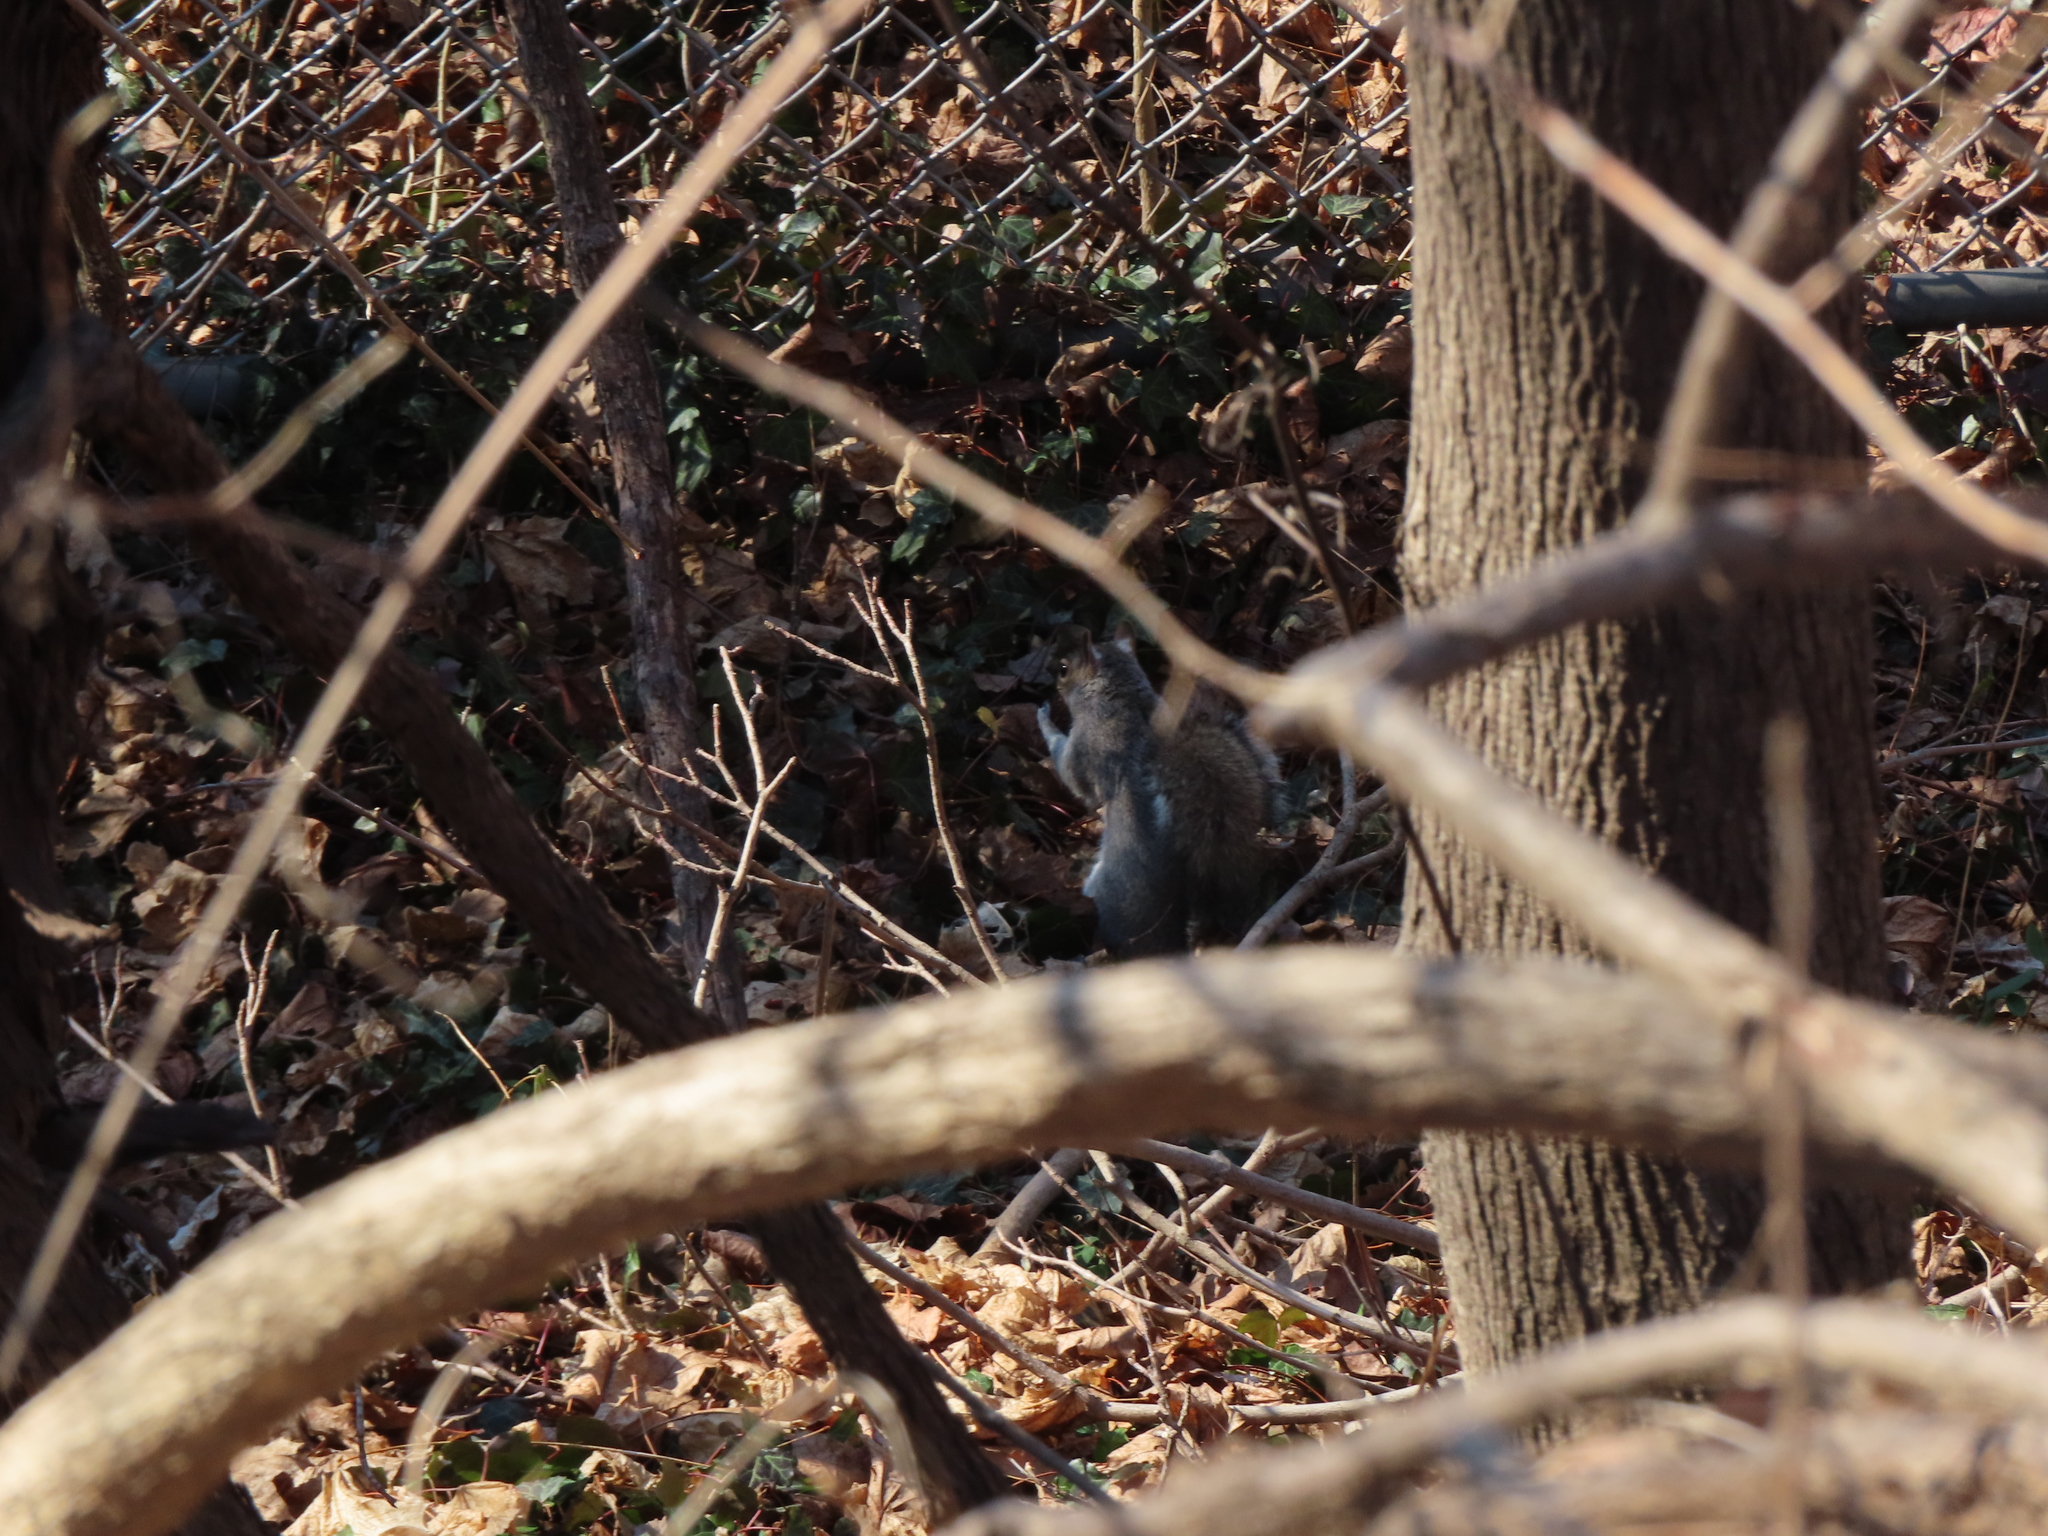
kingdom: Animalia
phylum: Chordata
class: Mammalia
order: Rodentia
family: Sciuridae
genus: Sciurus
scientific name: Sciurus carolinensis
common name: Eastern gray squirrel
